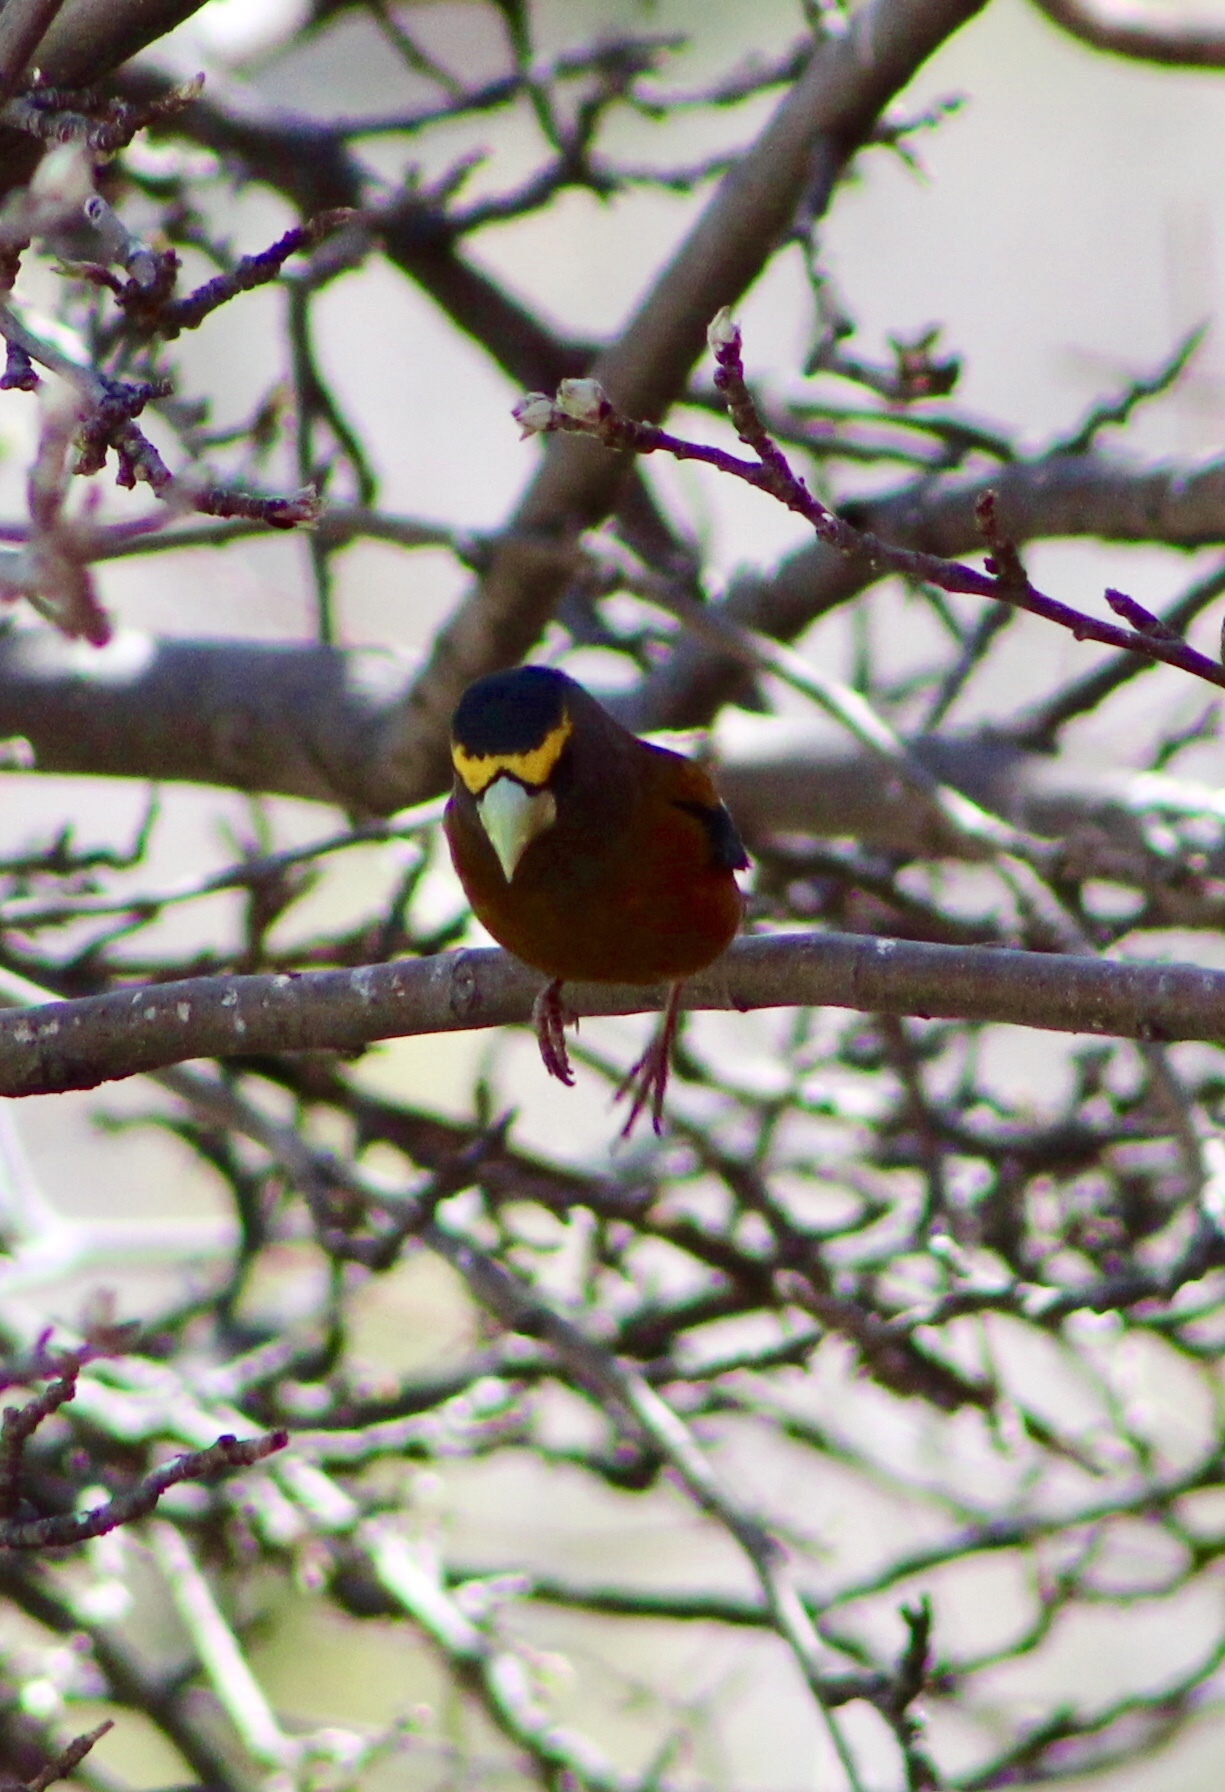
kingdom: Animalia
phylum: Chordata
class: Aves
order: Passeriformes
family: Fringillidae
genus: Hesperiphona
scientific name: Hesperiphona vespertina
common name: Evening grosbeak
